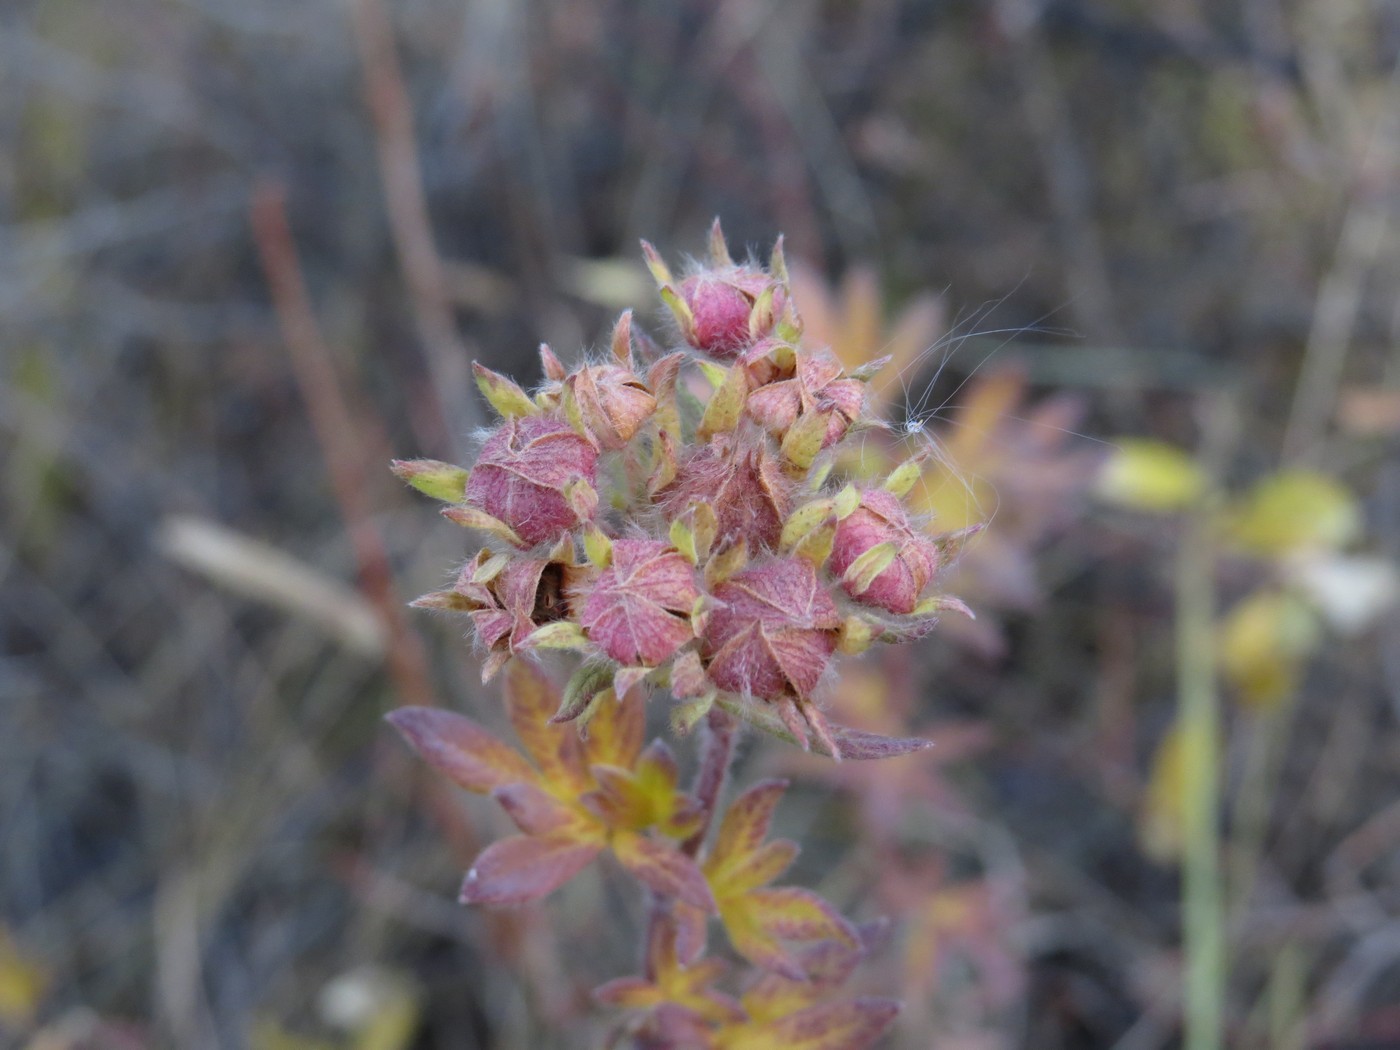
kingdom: Plantae
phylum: Tracheophyta
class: Magnoliopsida
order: Rosales
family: Rosaceae
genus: Dasiphora
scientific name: Dasiphora fruticosa
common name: Shrubby cinquefoil
